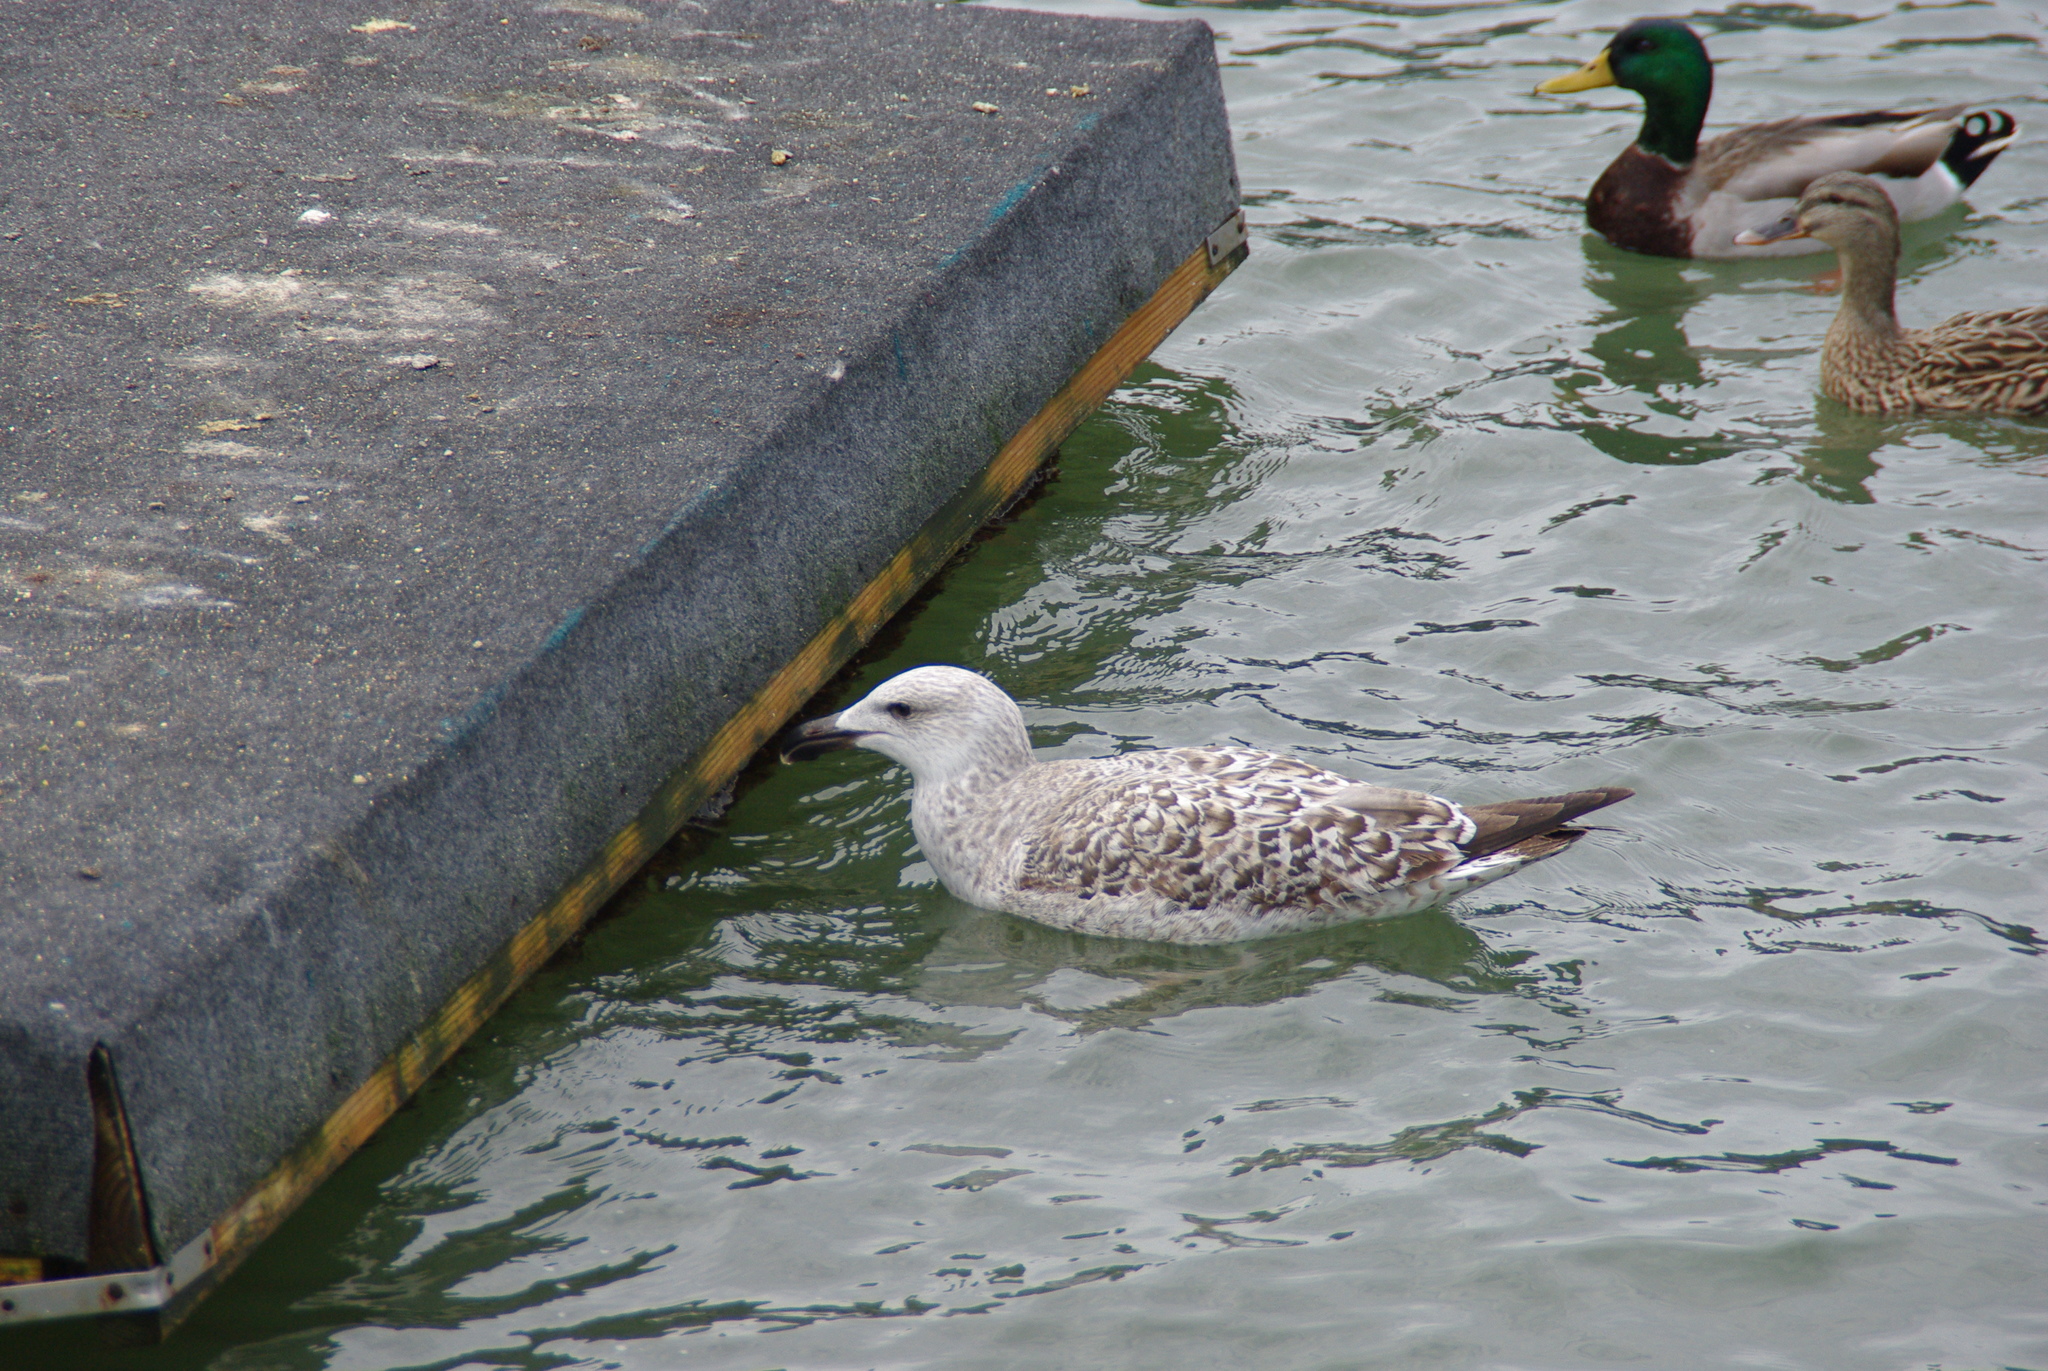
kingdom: Animalia
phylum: Chordata
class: Aves
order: Charadriiformes
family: Laridae
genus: Larus
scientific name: Larus marinus
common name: Great black-backed gull
